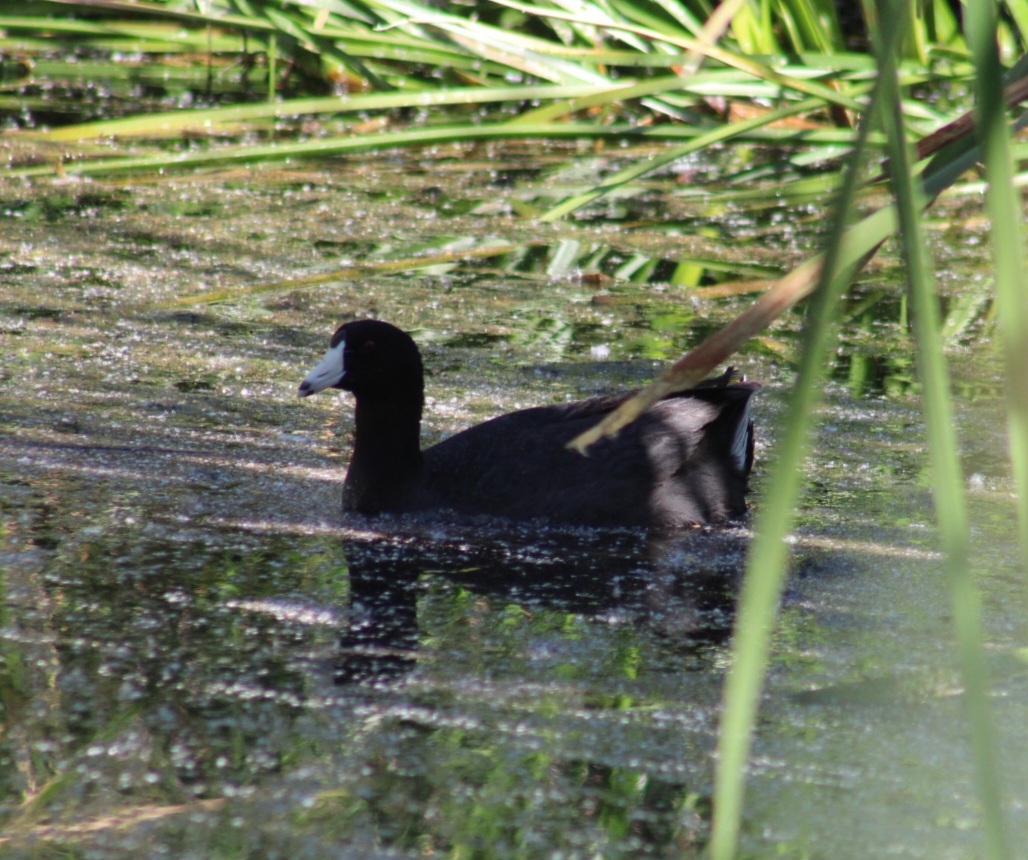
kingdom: Animalia
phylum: Chordata
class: Aves
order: Gruiformes
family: Rallidae
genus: Fulica
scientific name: Fulica americana
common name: American coot
